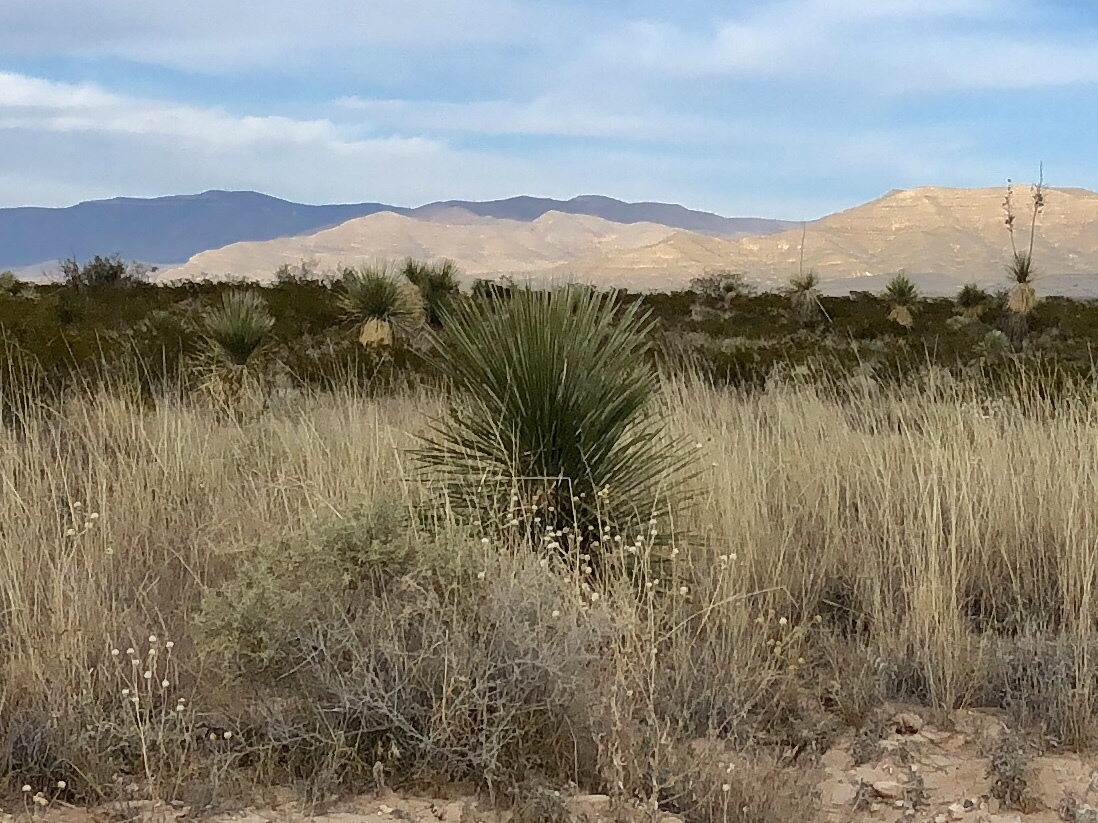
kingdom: Plantae
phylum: Tracheophyta
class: Liliopsida
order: Asparagales
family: Asparagaceae
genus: Yucca
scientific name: Yucca elata
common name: Palmella
